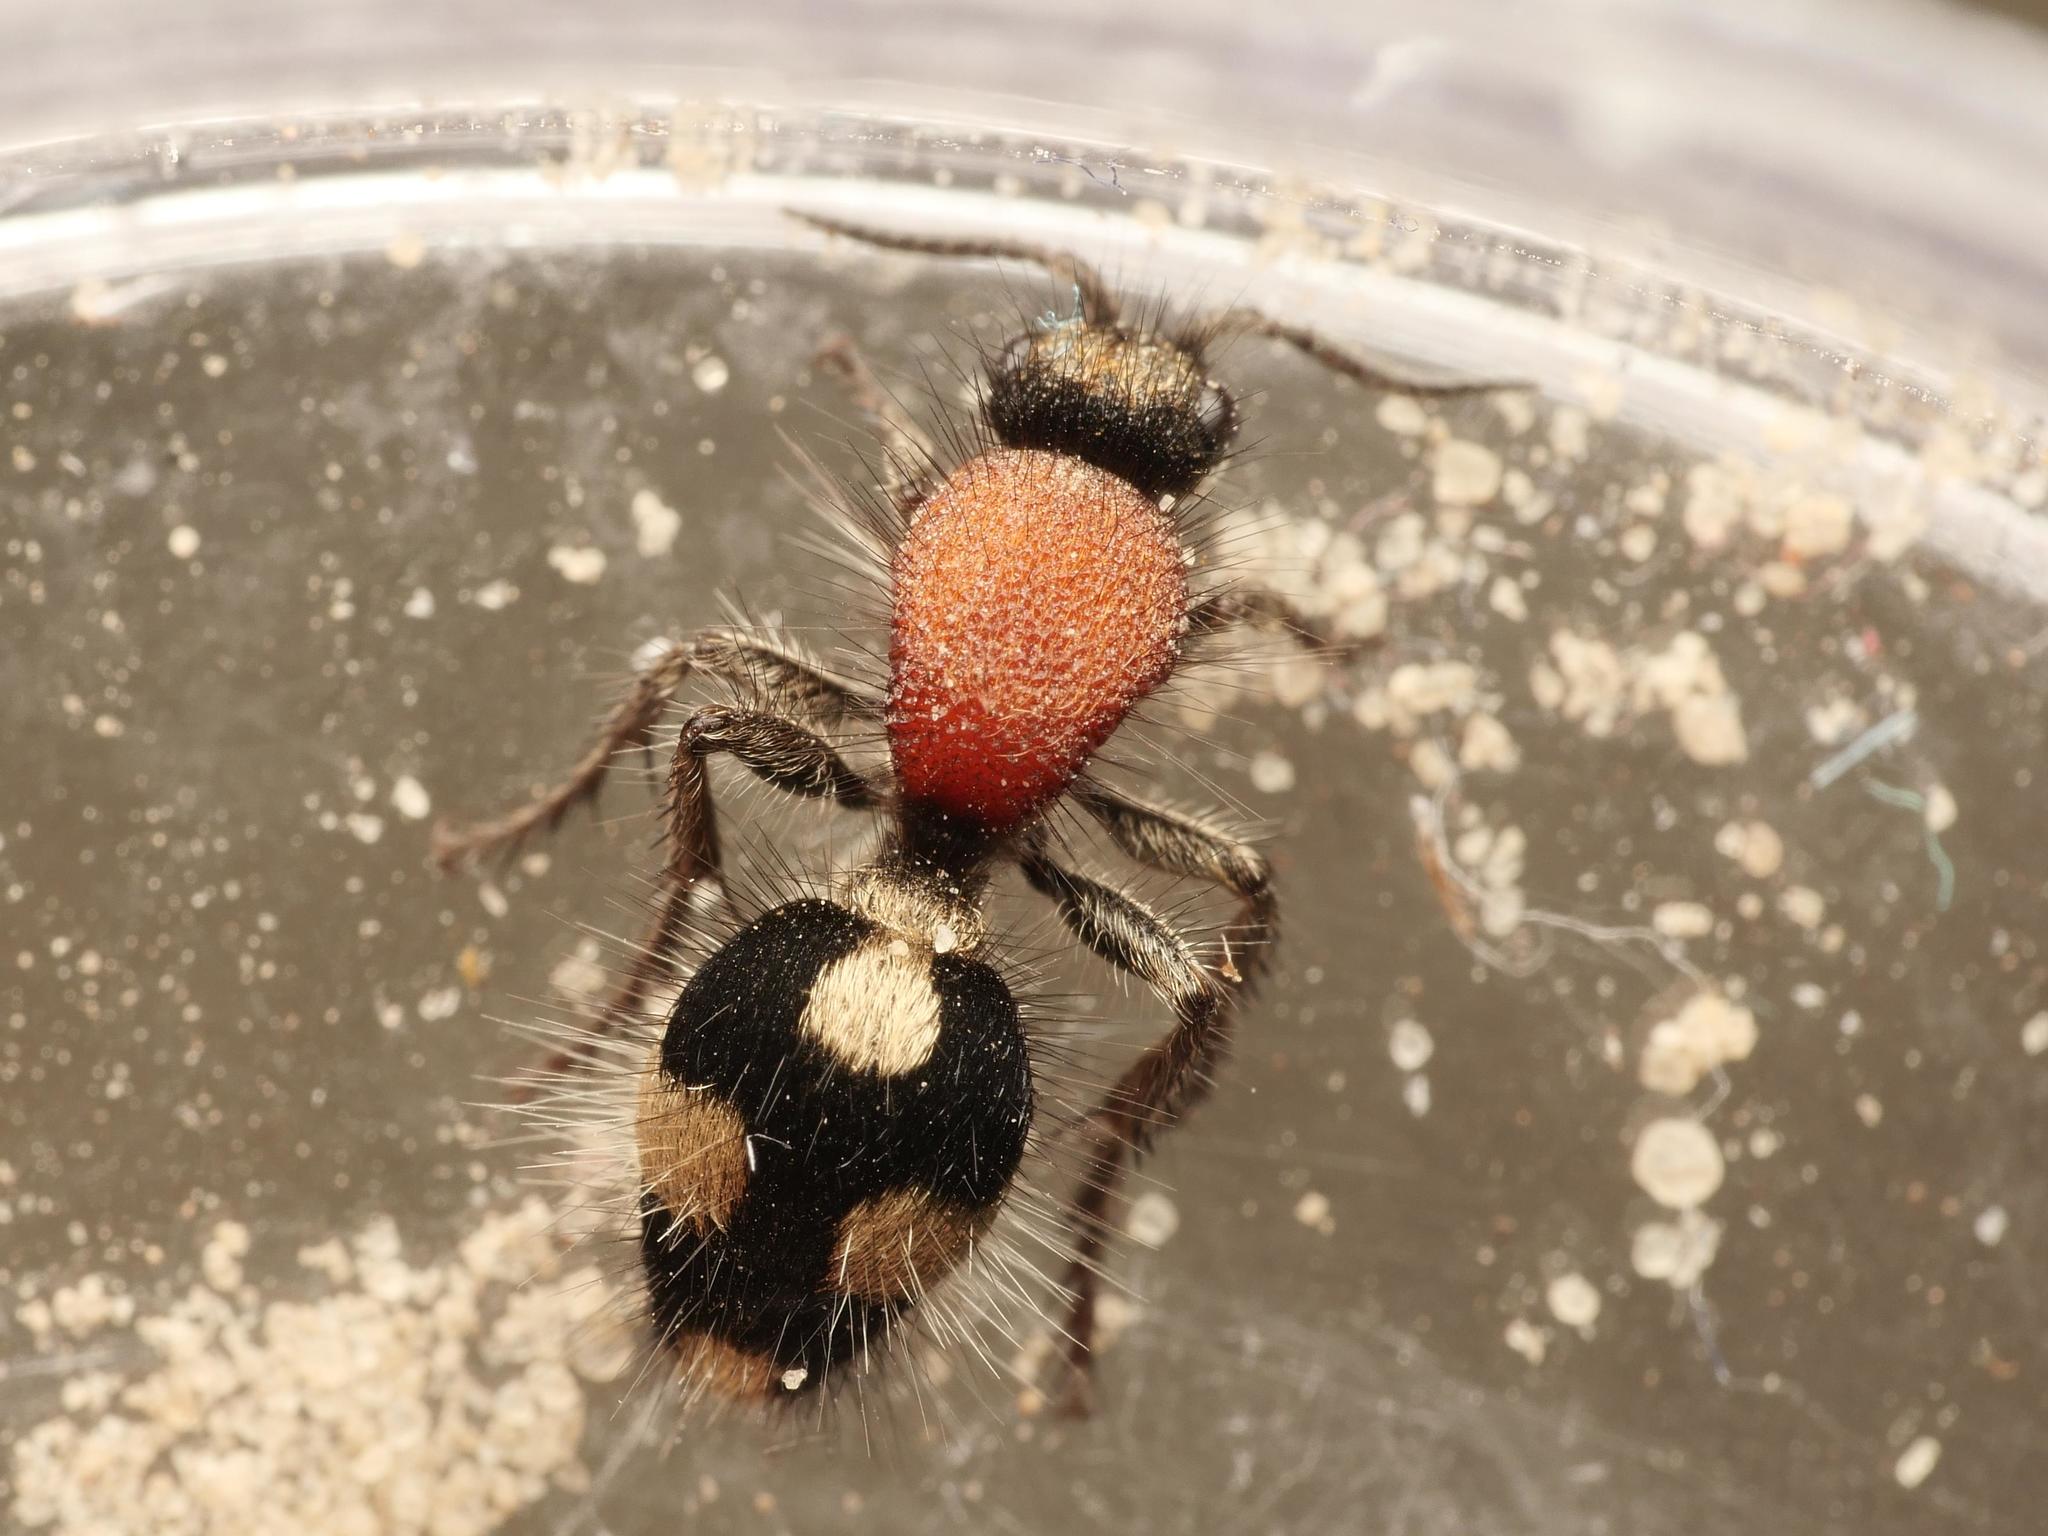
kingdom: Animalia
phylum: Arthropoda
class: Insecta
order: Hymenoptera
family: Mutillidae
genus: Dasylabris
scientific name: Dasylabris maura
